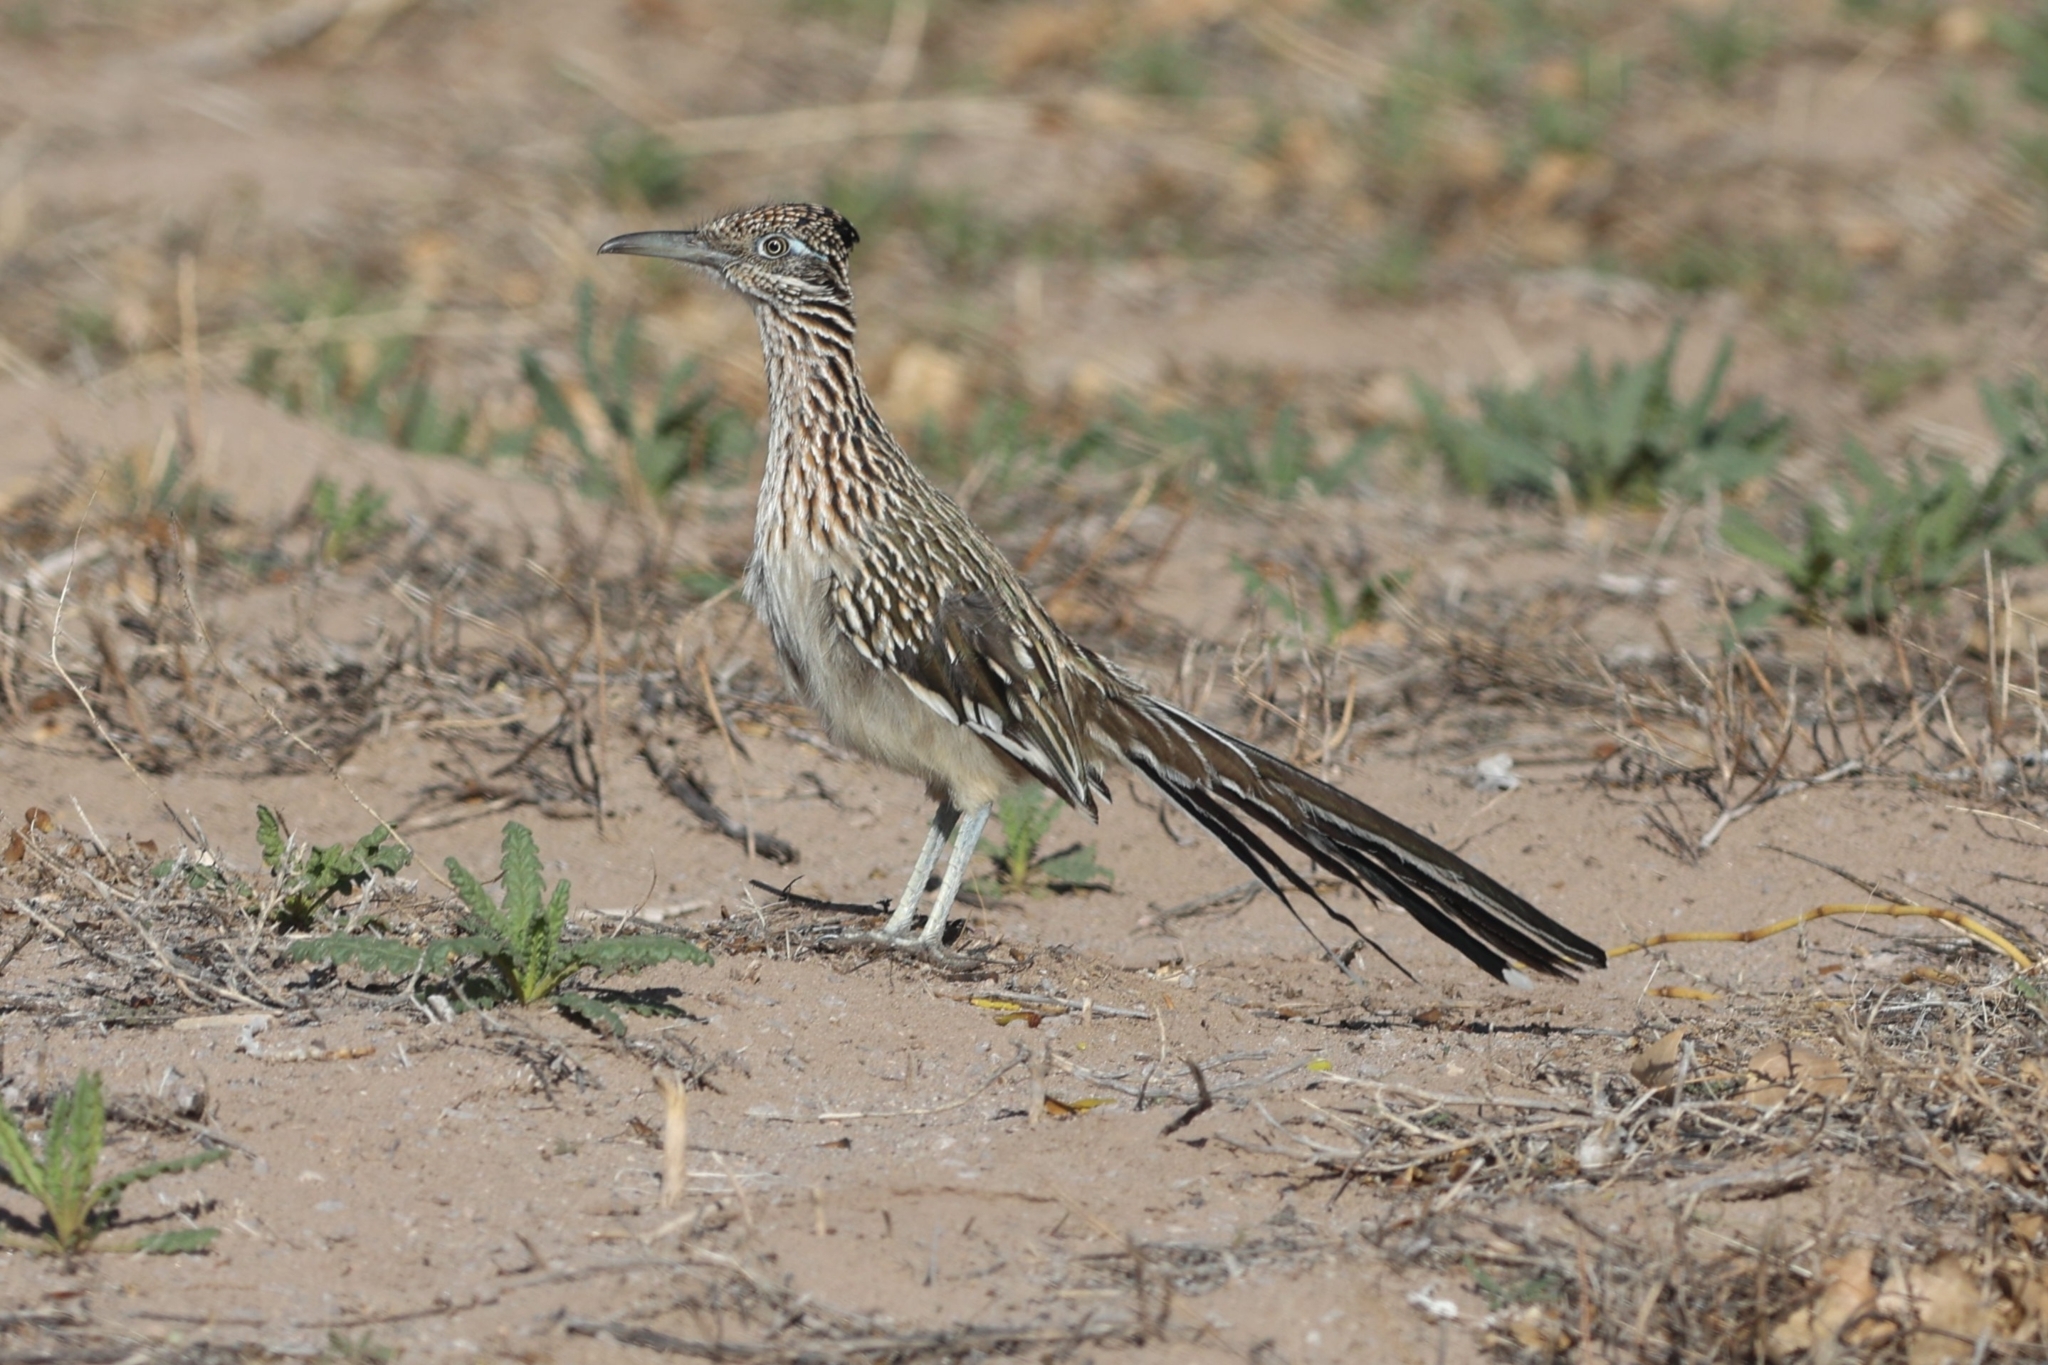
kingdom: Animalia
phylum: Chordata
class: Aves
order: Cuculiformes
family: Cuculidae
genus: Geococcyx
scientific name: Geococcyx californianus
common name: Greater roadrunner
